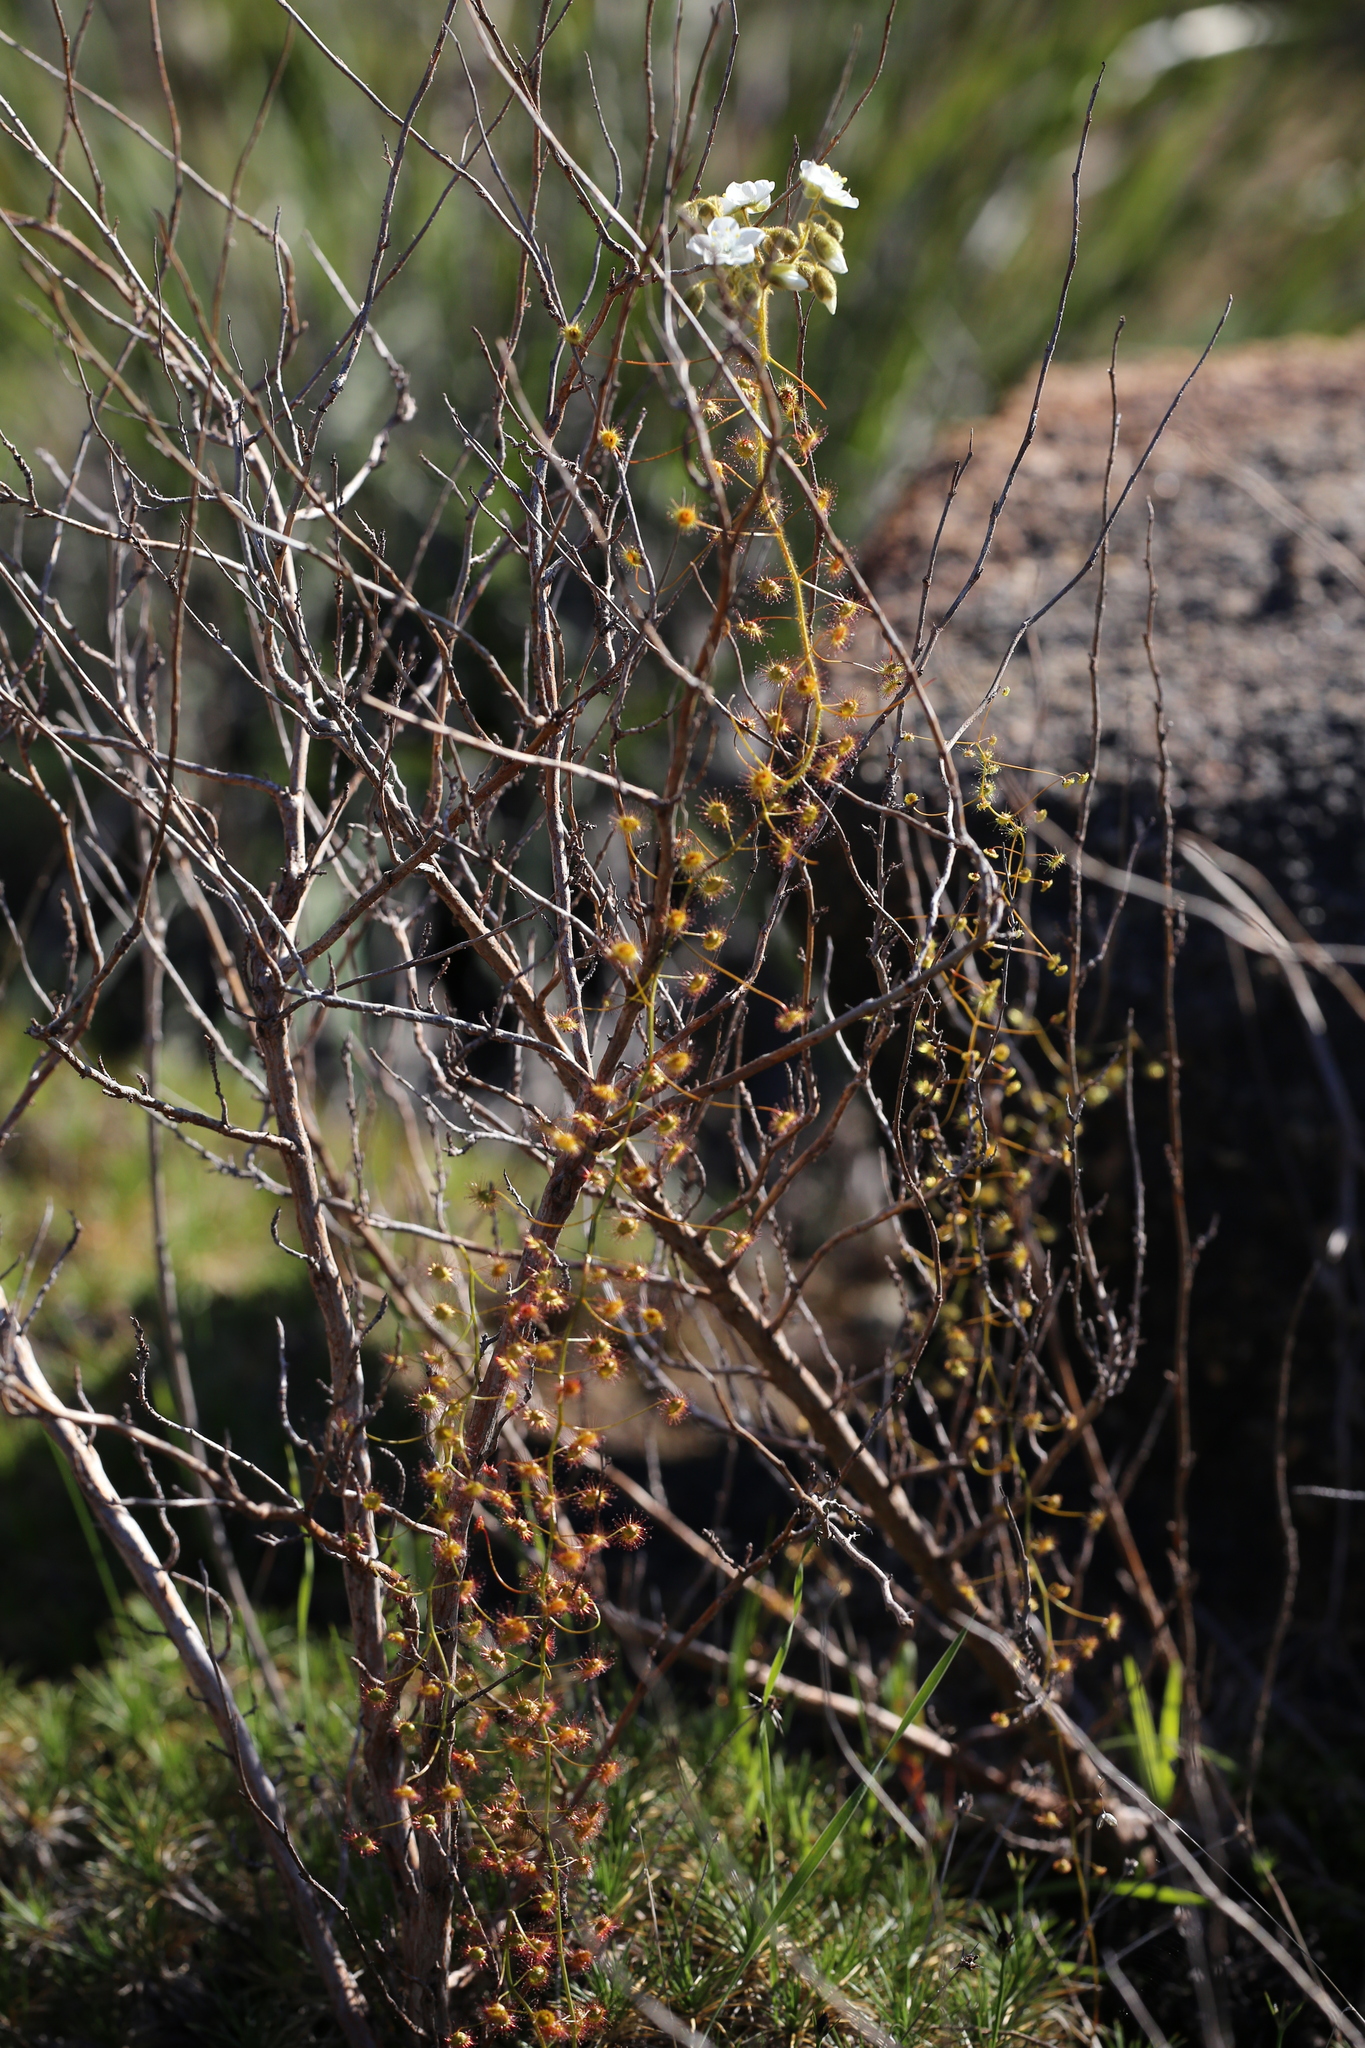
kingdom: Plantae
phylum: Tracheophyta
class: Magnoliopsida
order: Caryophyllales
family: Droseraceae
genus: Drosera
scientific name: Drosera hirsuta
